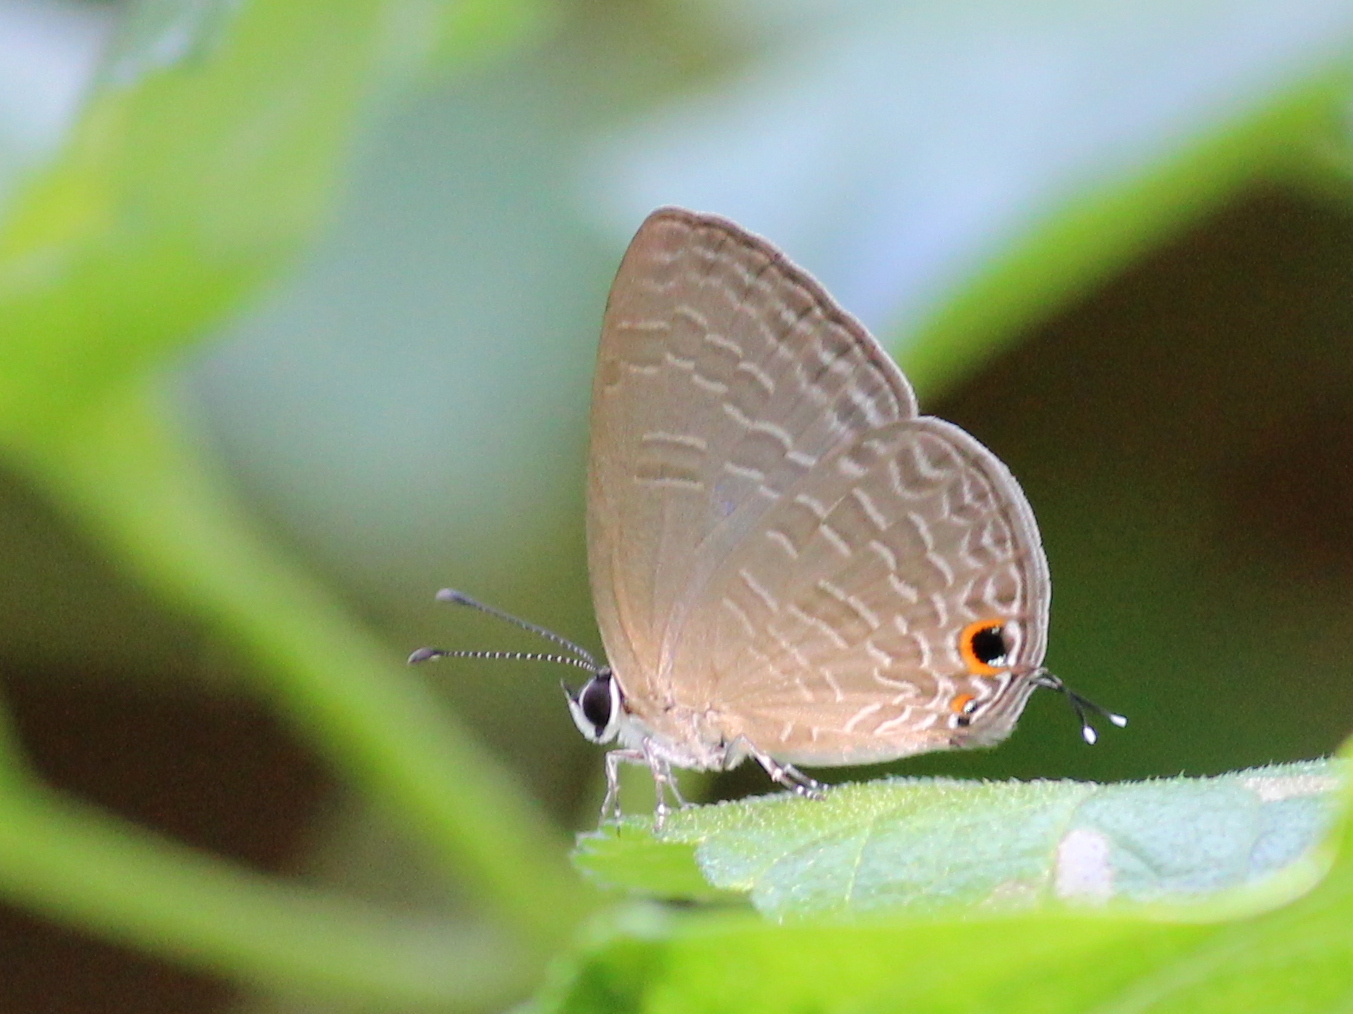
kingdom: Animalia
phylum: Arthropoda
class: Insecta
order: Lepidoptera
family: Lycaenidae
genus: Jamides
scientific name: Jamides bochus
